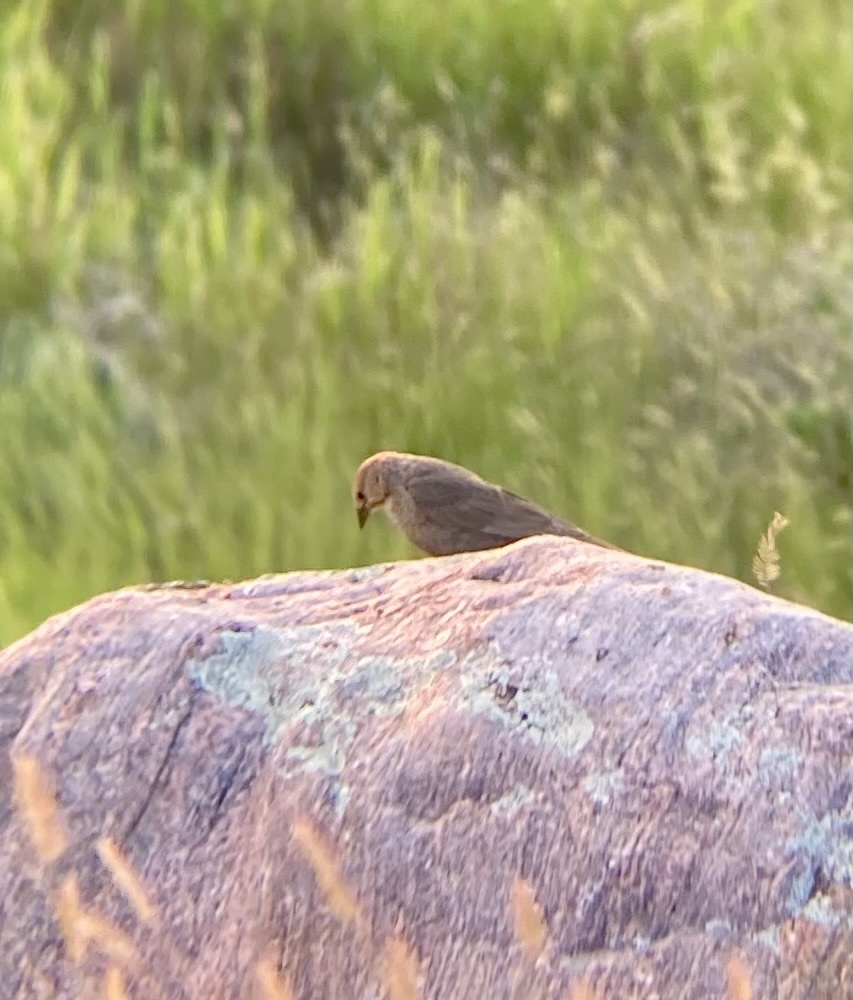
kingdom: Animalia
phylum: Chordata
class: Aves
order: Passeriformes
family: Icteridae
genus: Molothrus
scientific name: Molothrus ater
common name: Brown-headed cowbird
